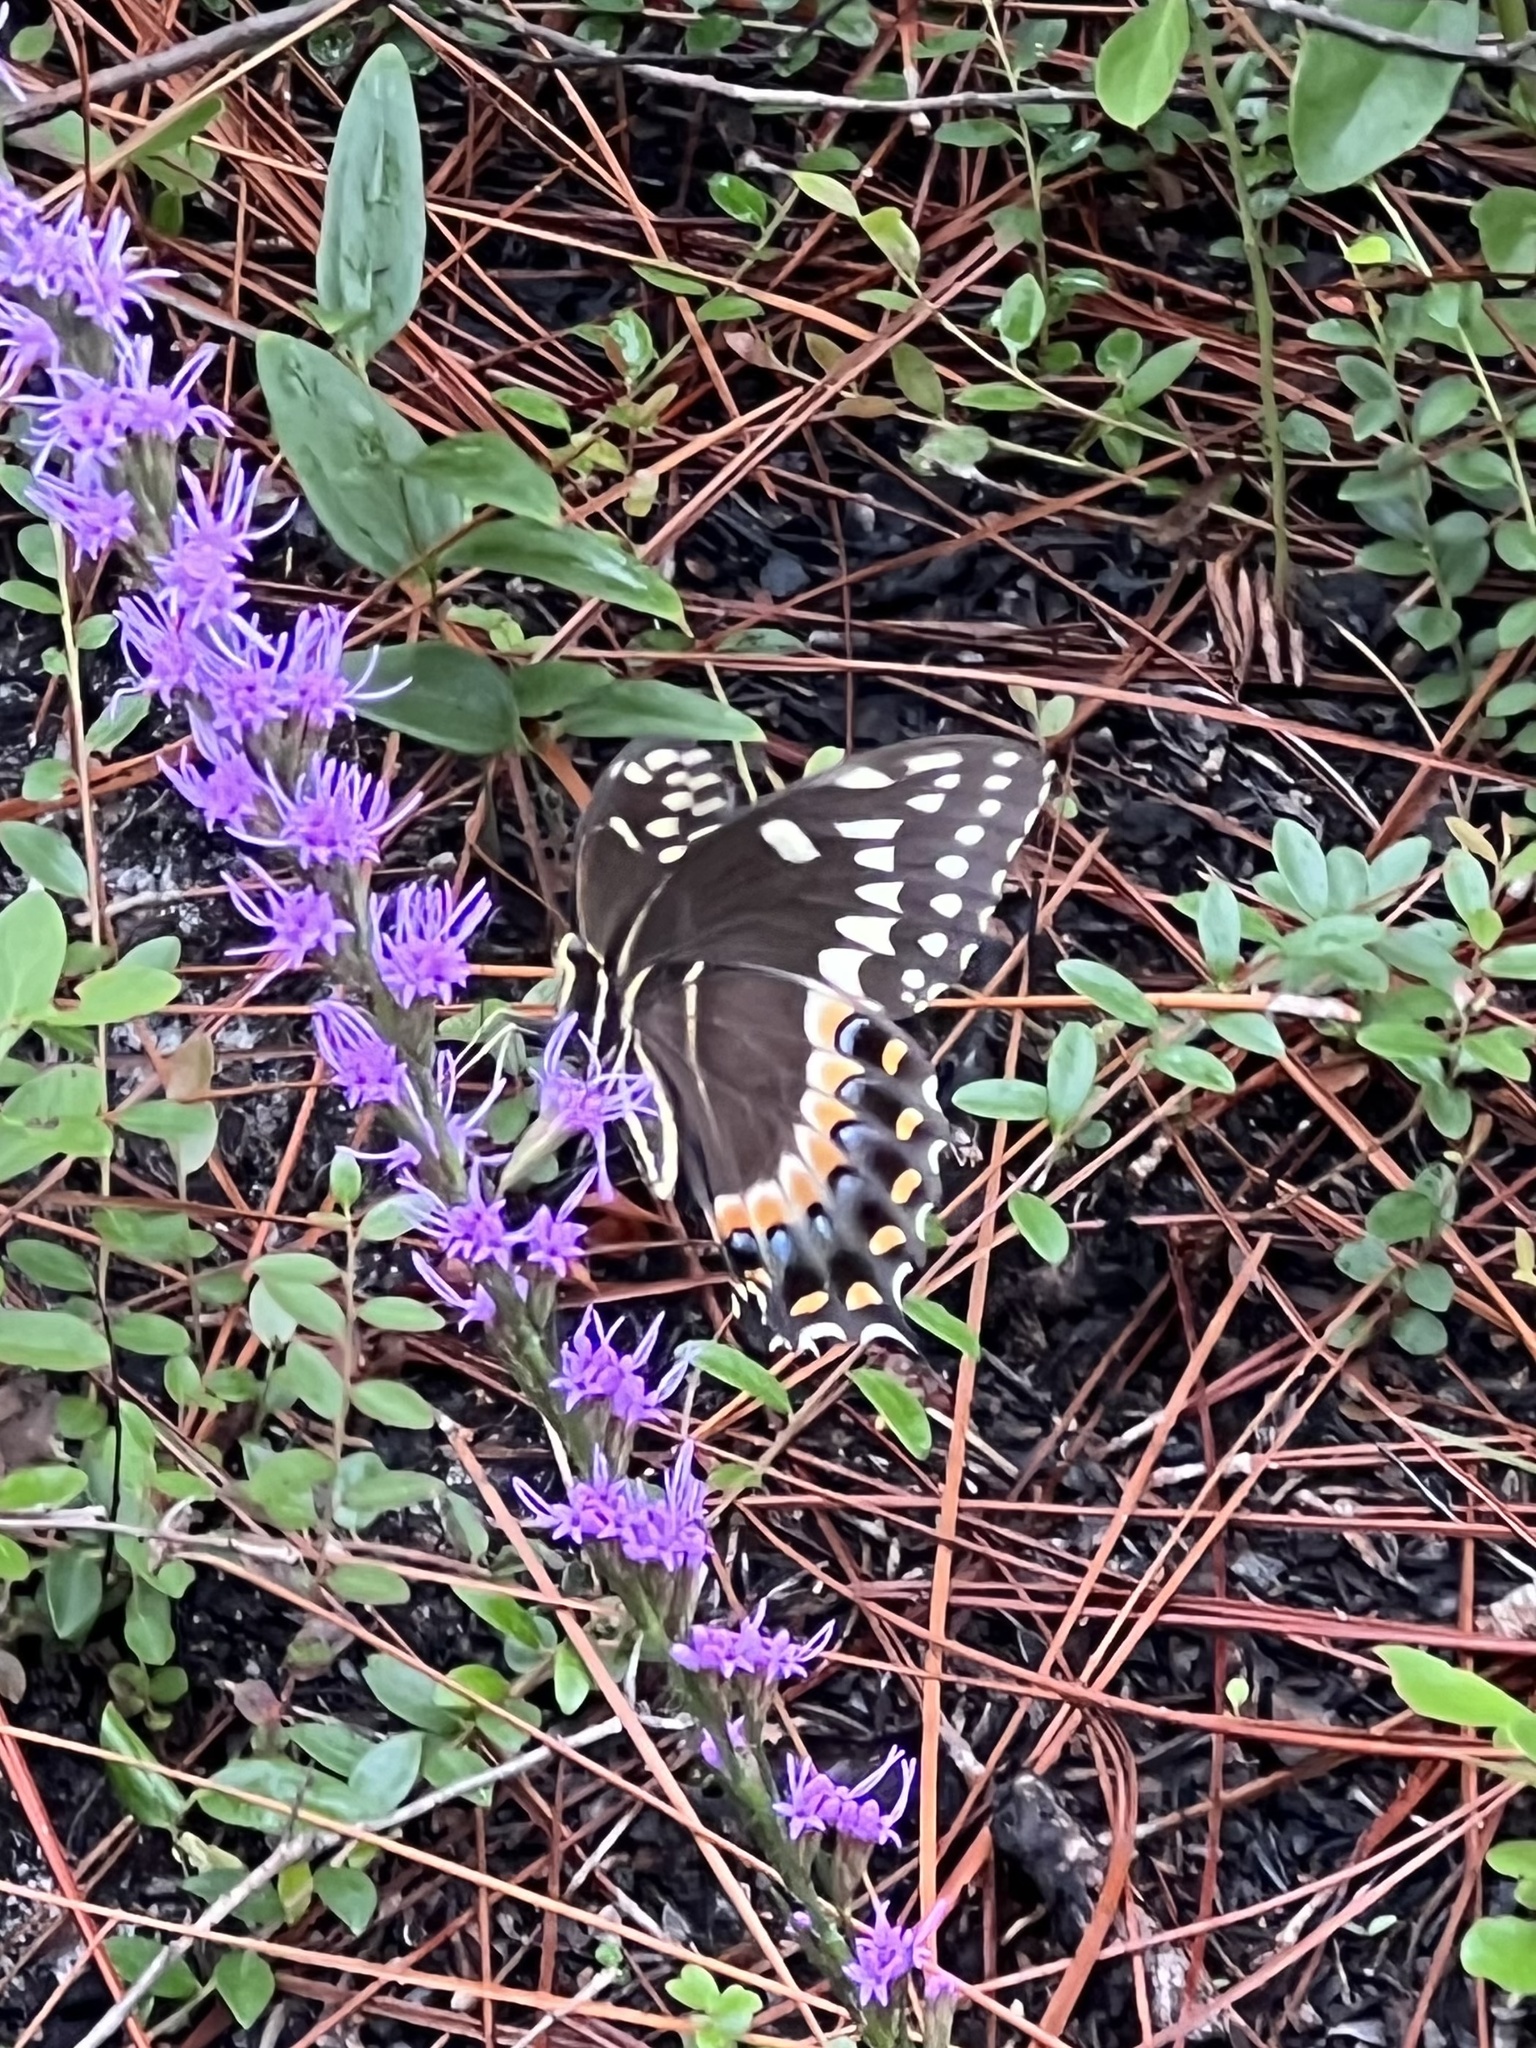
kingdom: Animalia
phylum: Arthropoda
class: Insecta
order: Lepidoptera
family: Papilionidae
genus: Papilio
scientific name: Papilio palamedes
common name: Palamedes swallowtail
